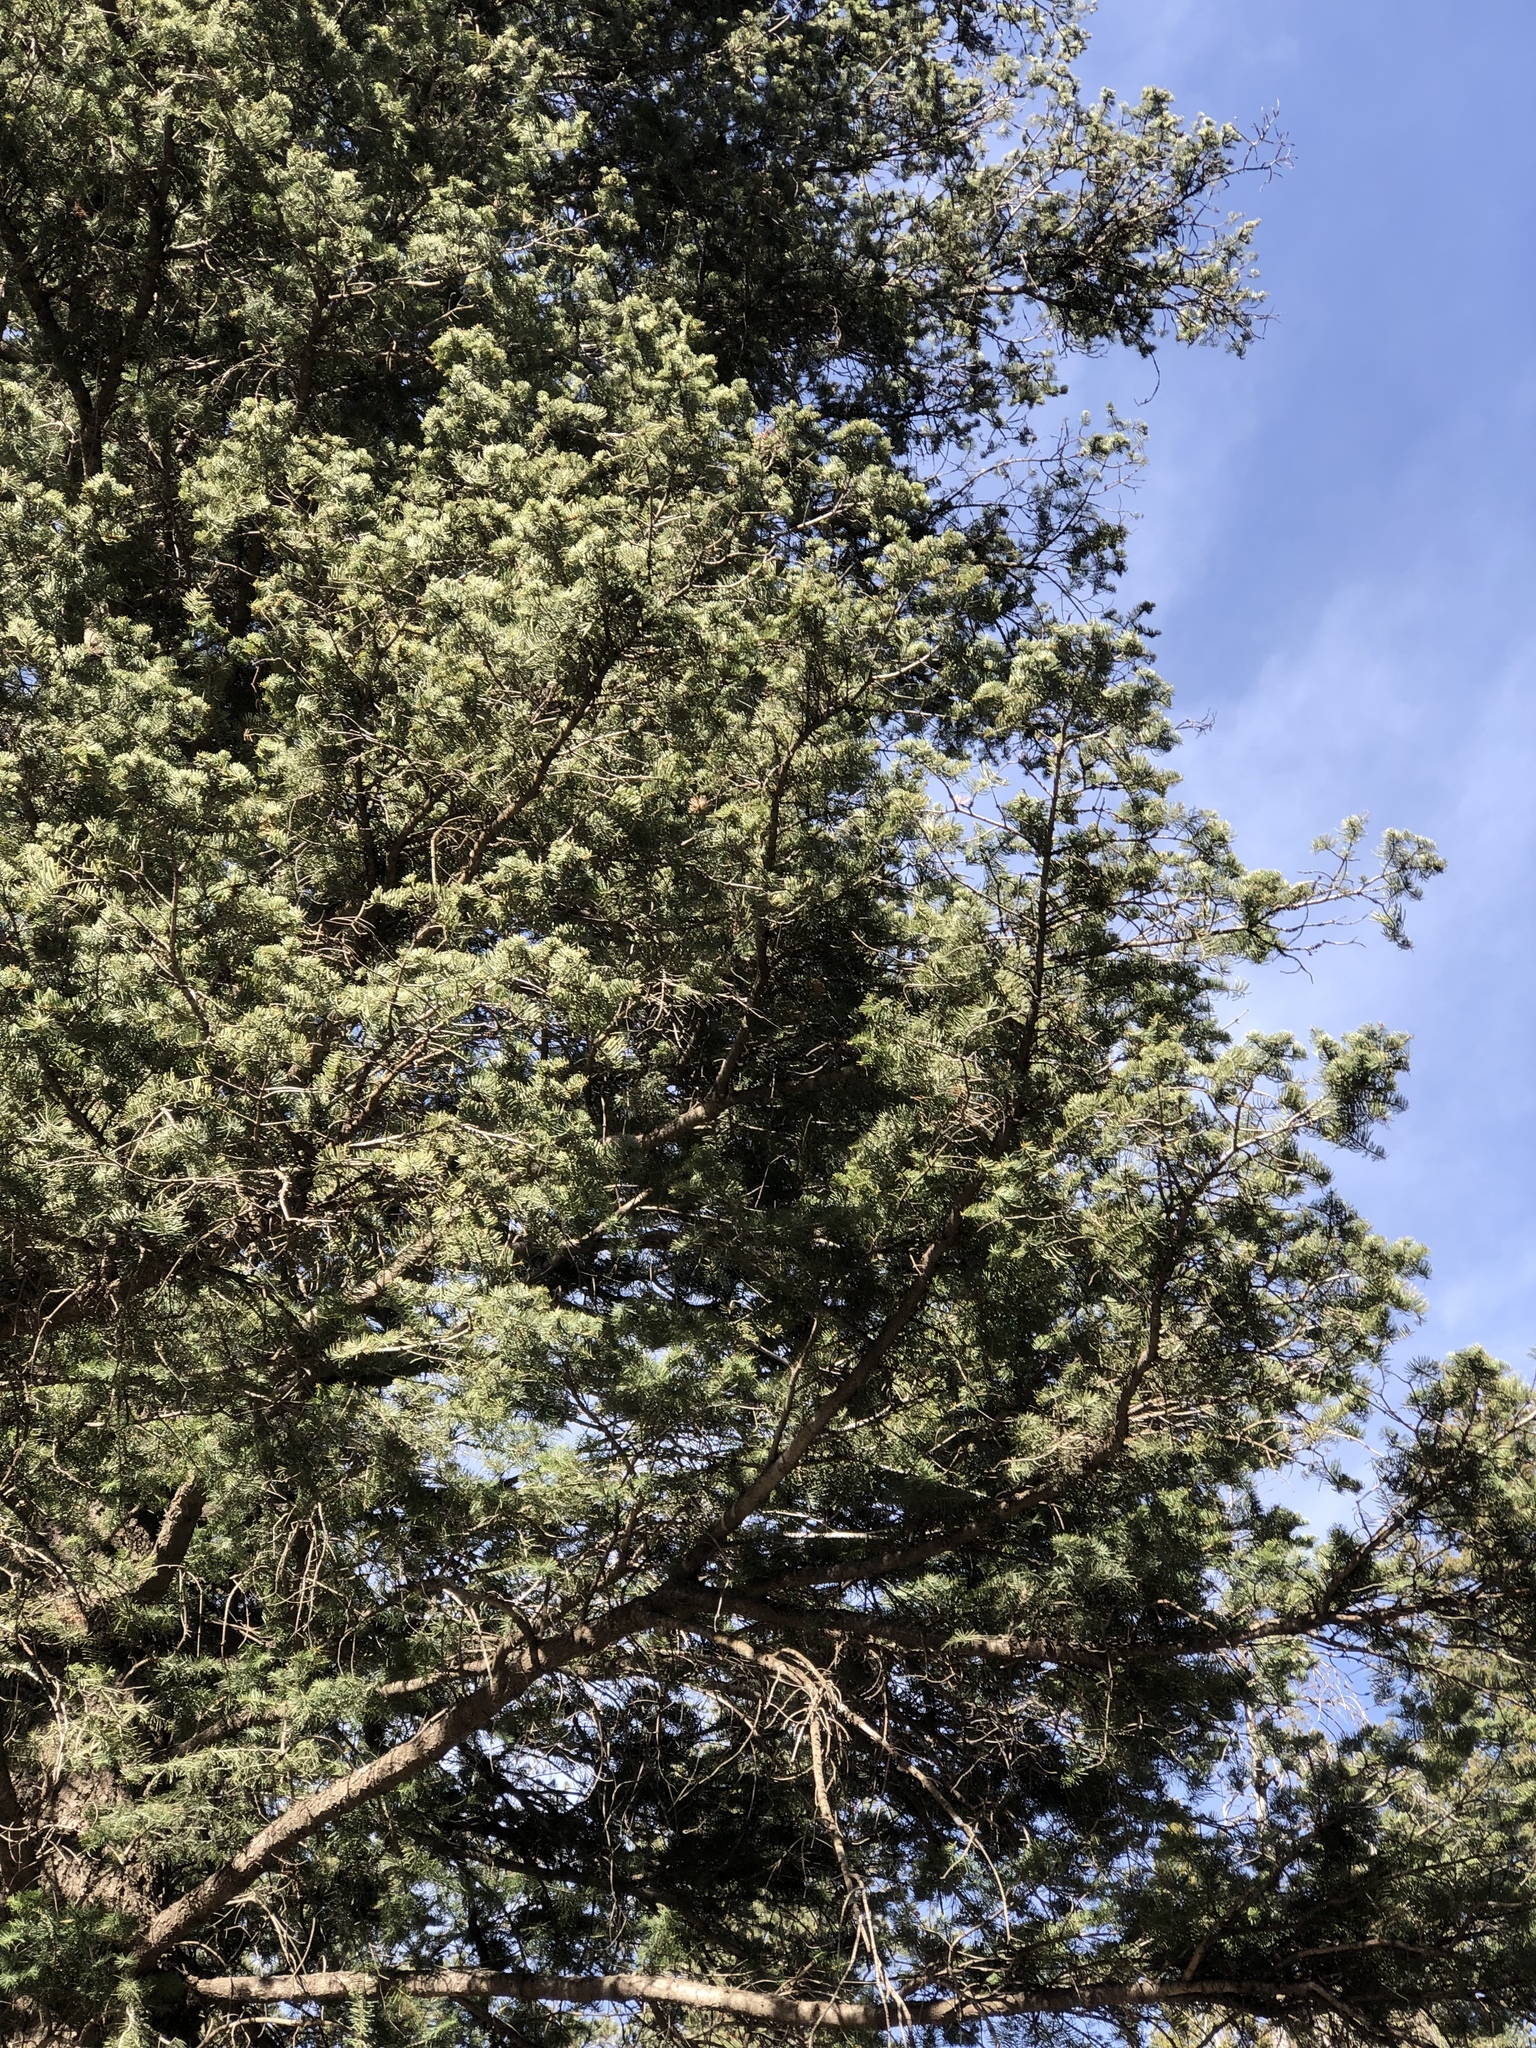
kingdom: Plantae
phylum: Tracheophyta
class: Pinopsida
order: Pinales
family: Pinaceae
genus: Pseudotsuga
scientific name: Pseudotsuga menziesii
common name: Douglas fir
